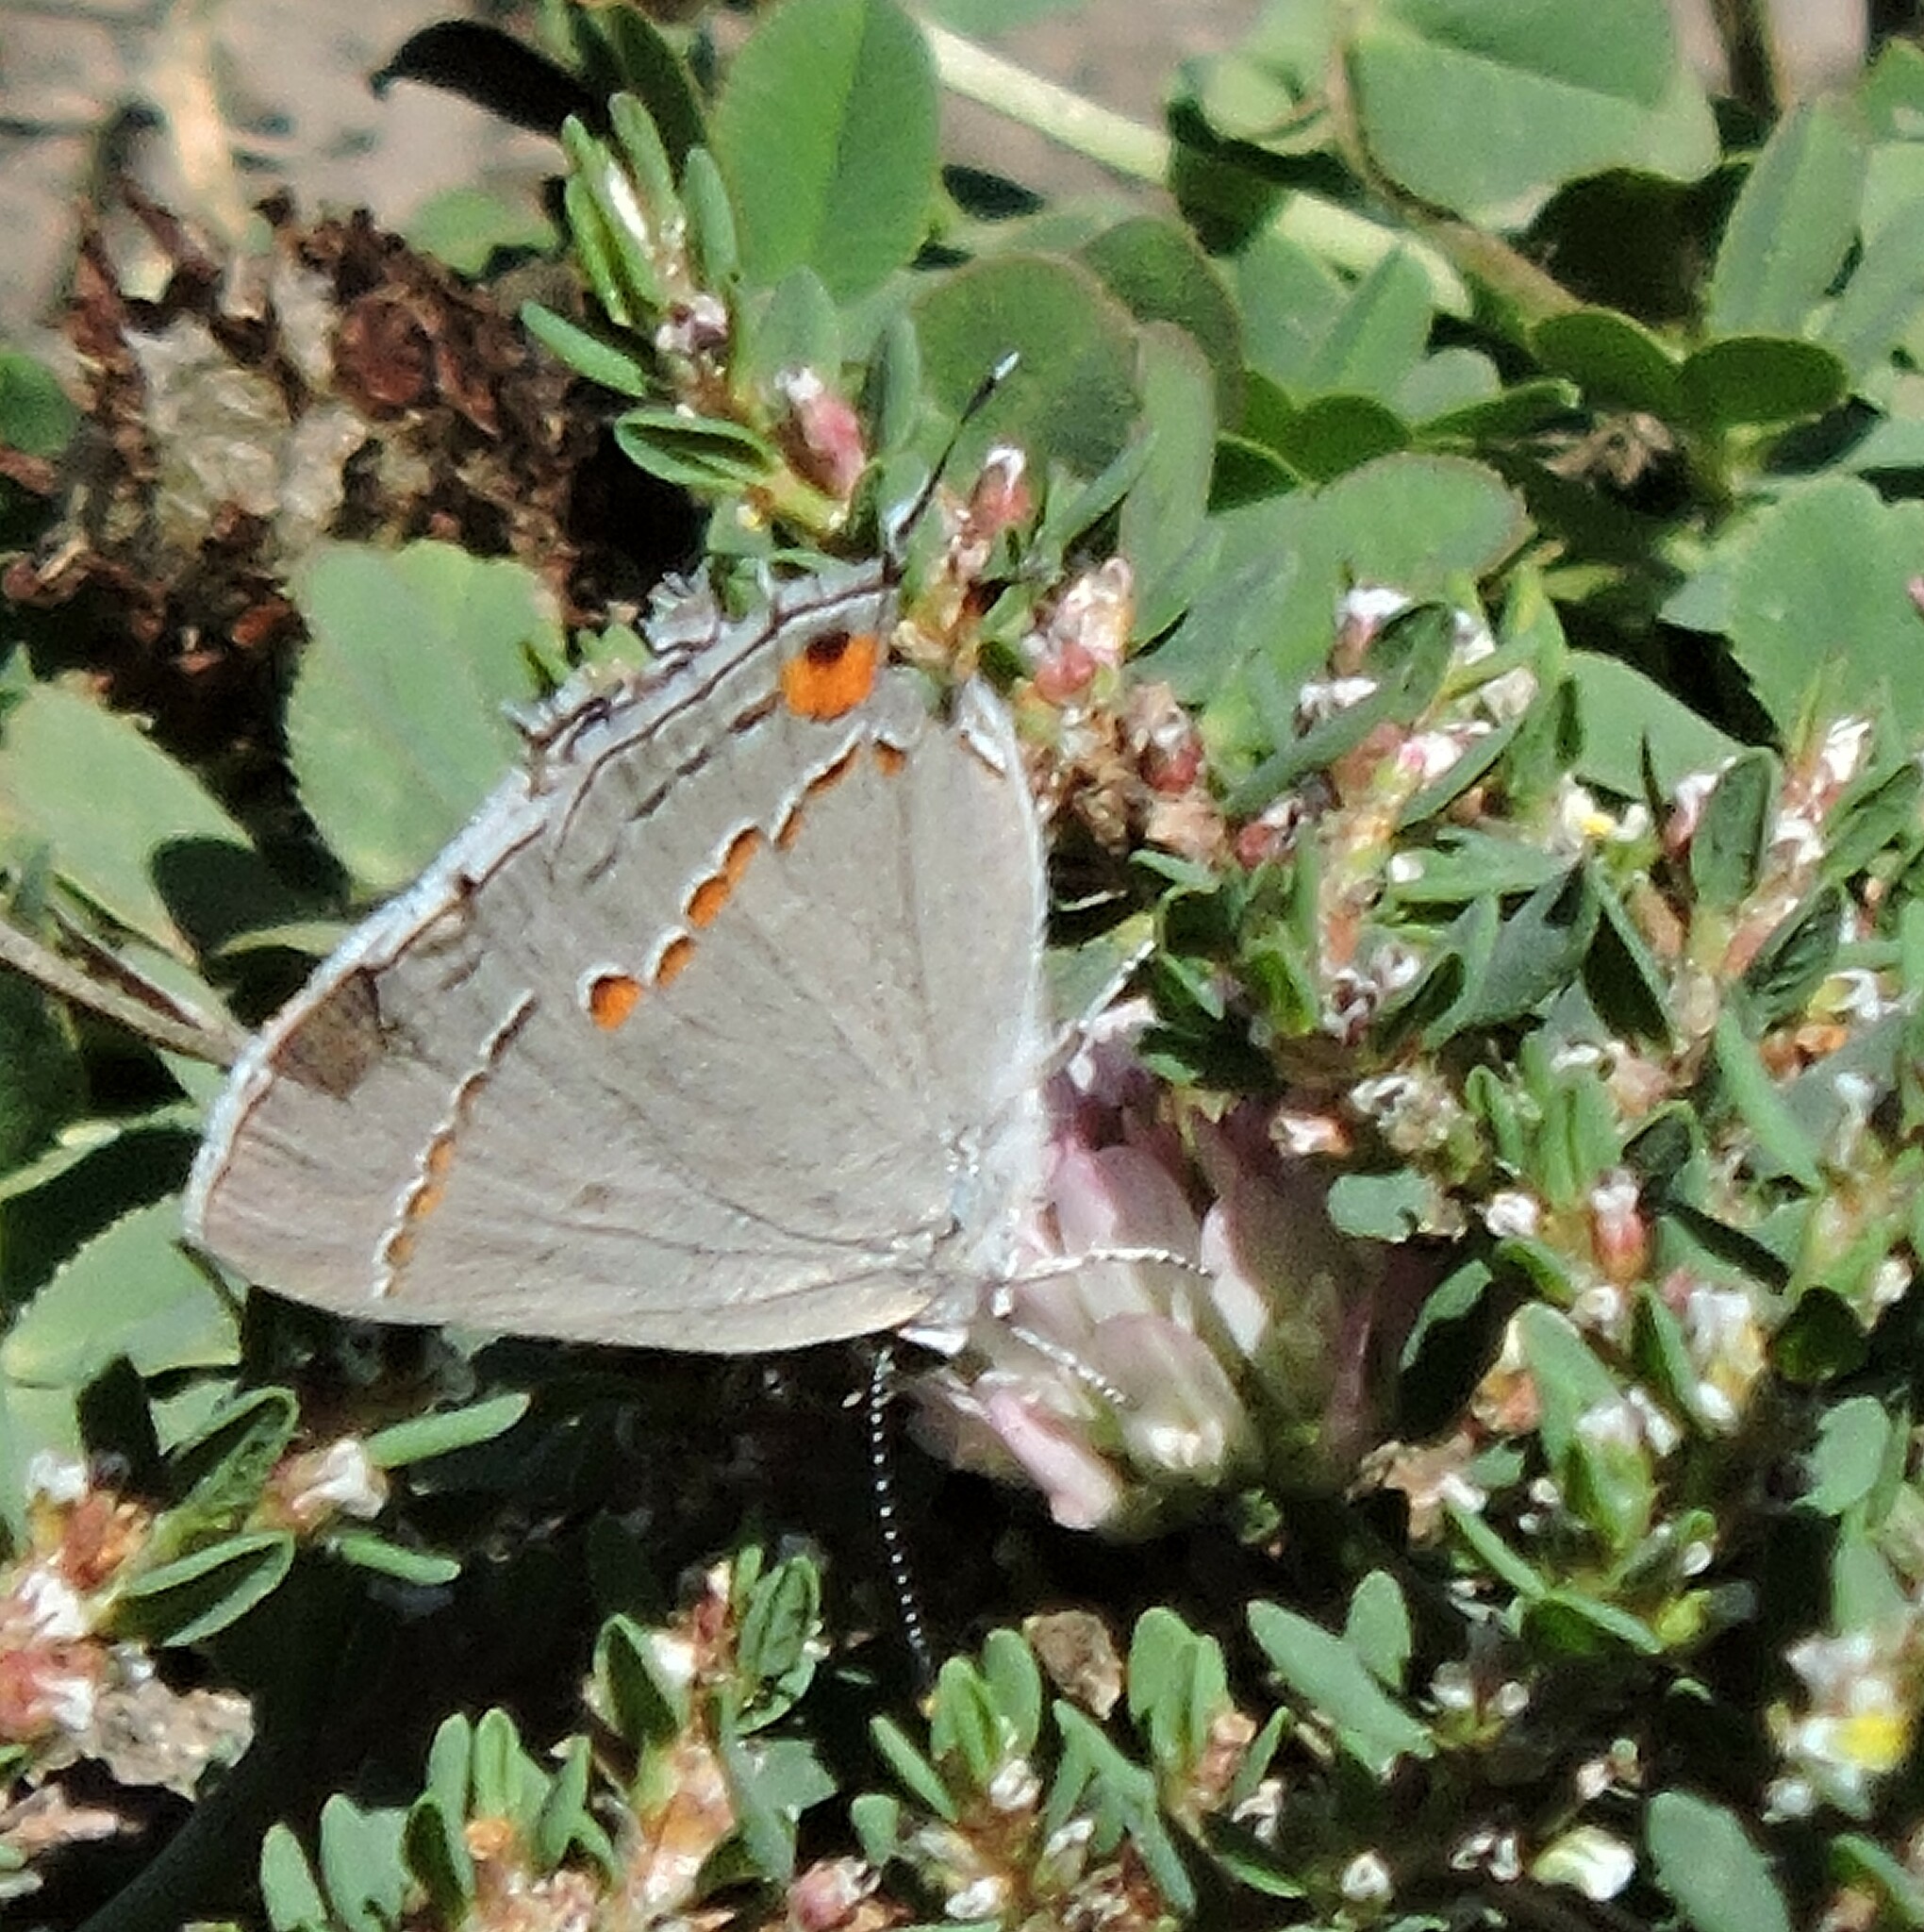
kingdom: Animalia
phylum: Arthropoda
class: Insecta
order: Lepidoptera
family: Lycaenidae
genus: Strymon
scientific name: Strymon melinus
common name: Gray hairstreak
